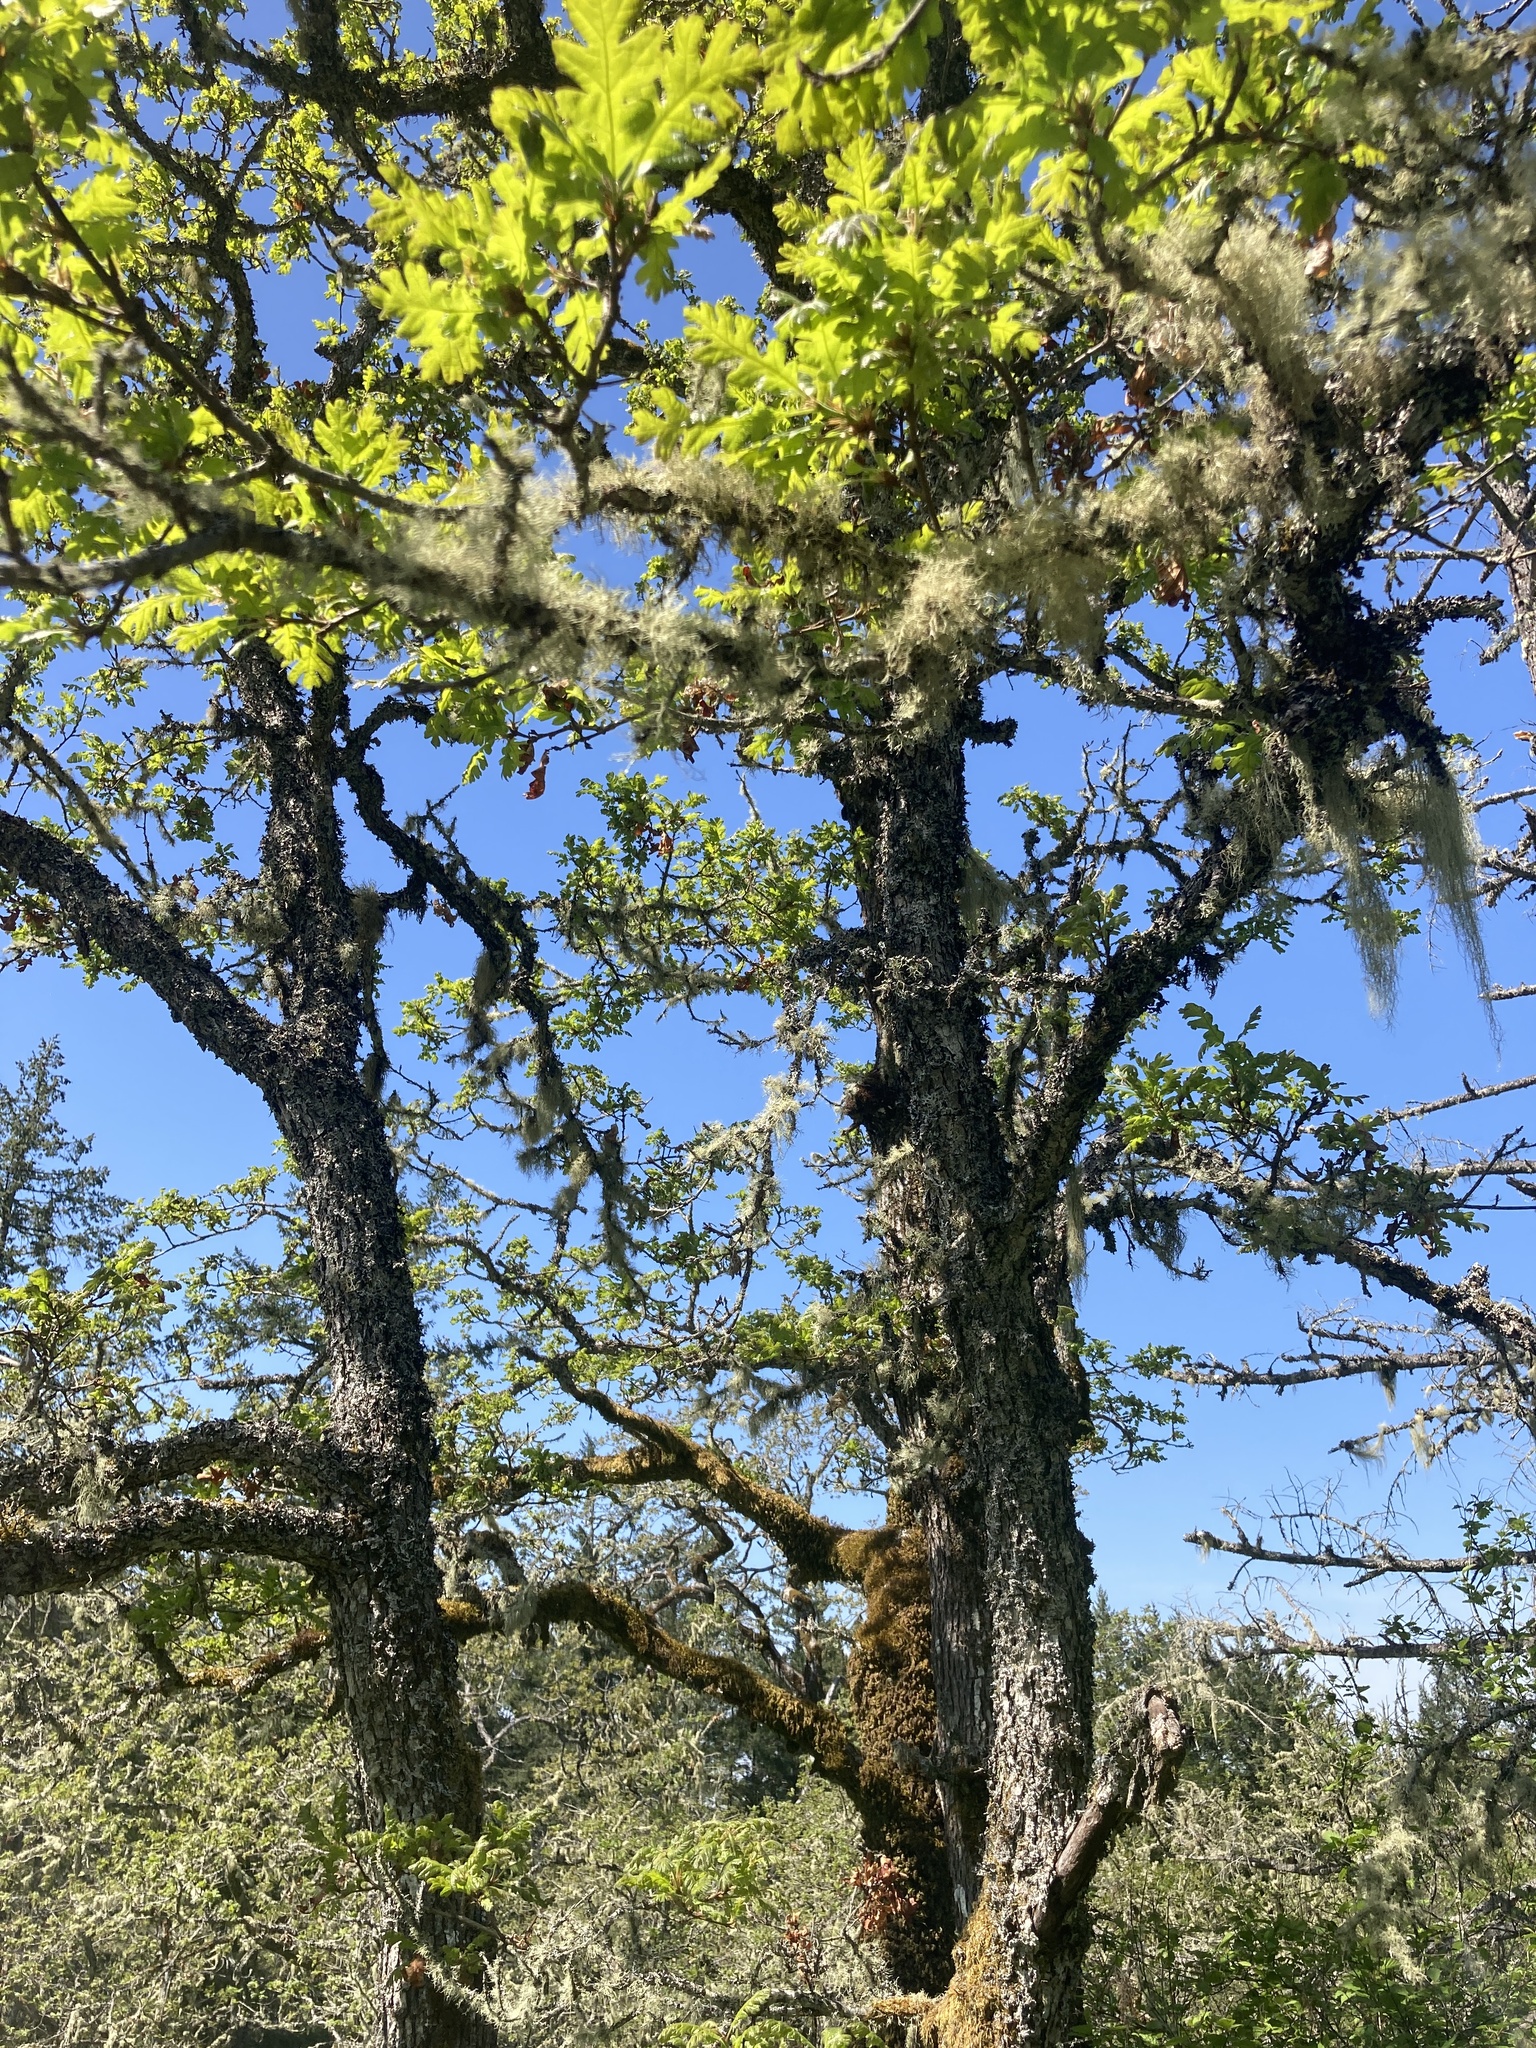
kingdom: Plantae
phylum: Tracheophyta
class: Magnoliopsida
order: Fagales
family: Fagaceae
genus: Quercus
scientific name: Quercus garryana
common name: Garry oak
